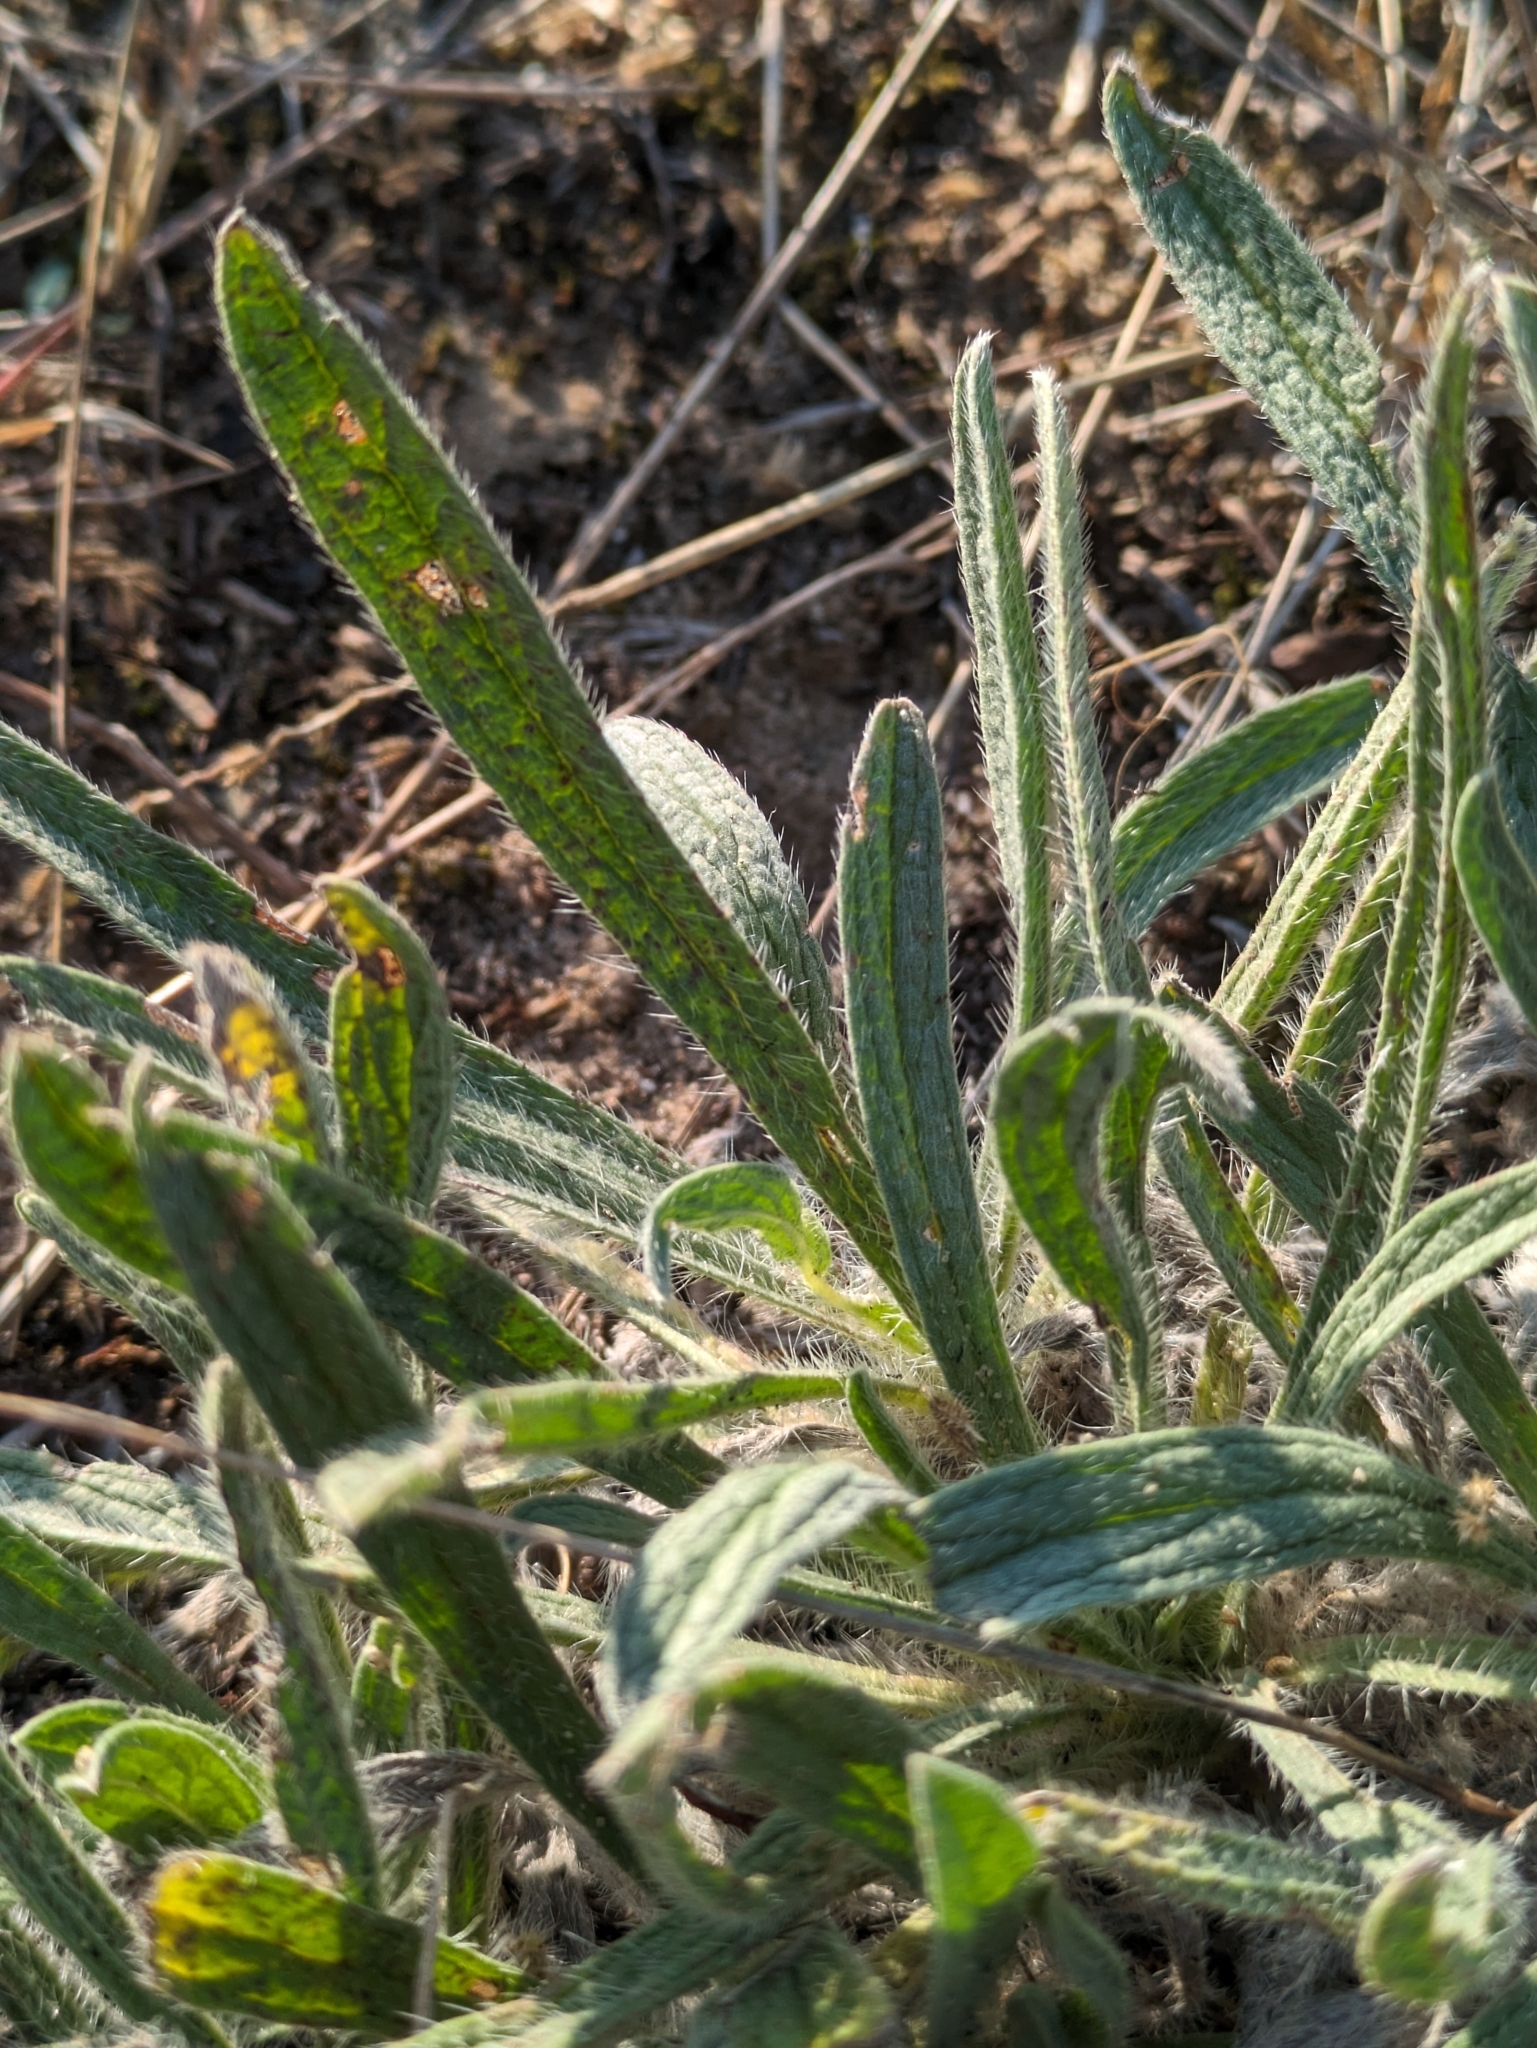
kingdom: Plantae
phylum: Tracheophyta
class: Magnoliopsida
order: Boraginales
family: Boraginaceae
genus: Alkanna
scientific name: Alkanna tinctoria
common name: Dyer's-alkanet
